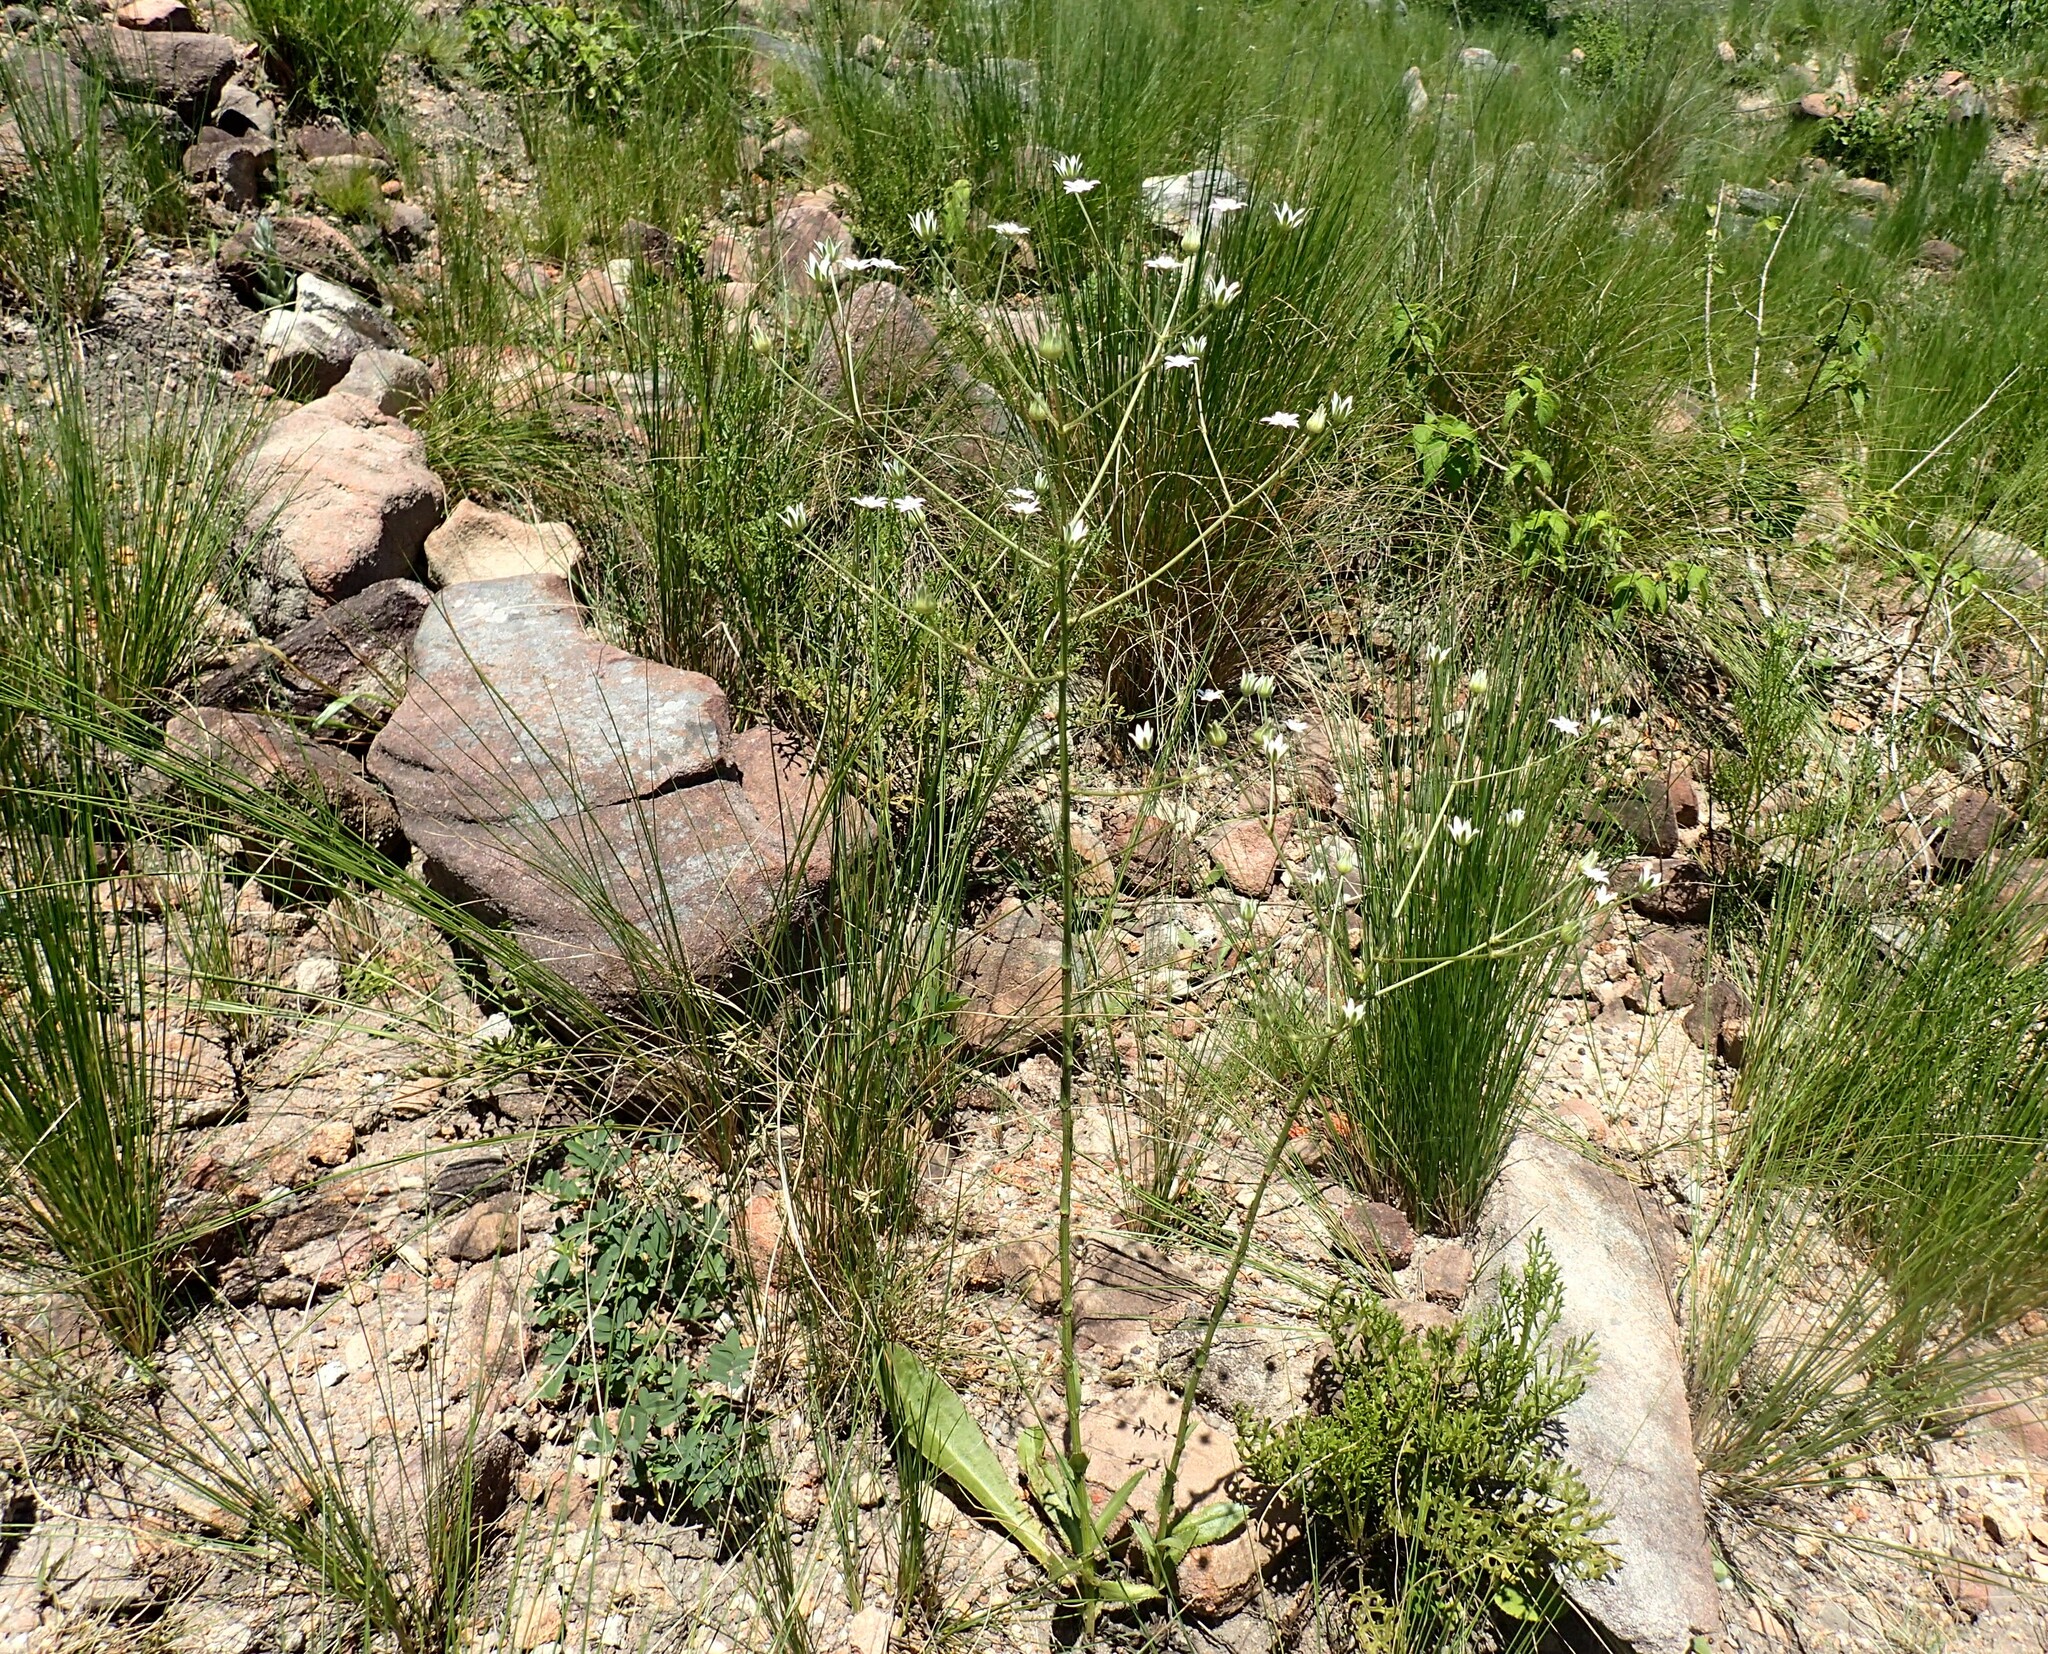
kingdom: Plantae
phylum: Tracheophyta
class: Magnoliopsida
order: Apiales
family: Apiaceae
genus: Alepidea
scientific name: Alepidea peduncularis
